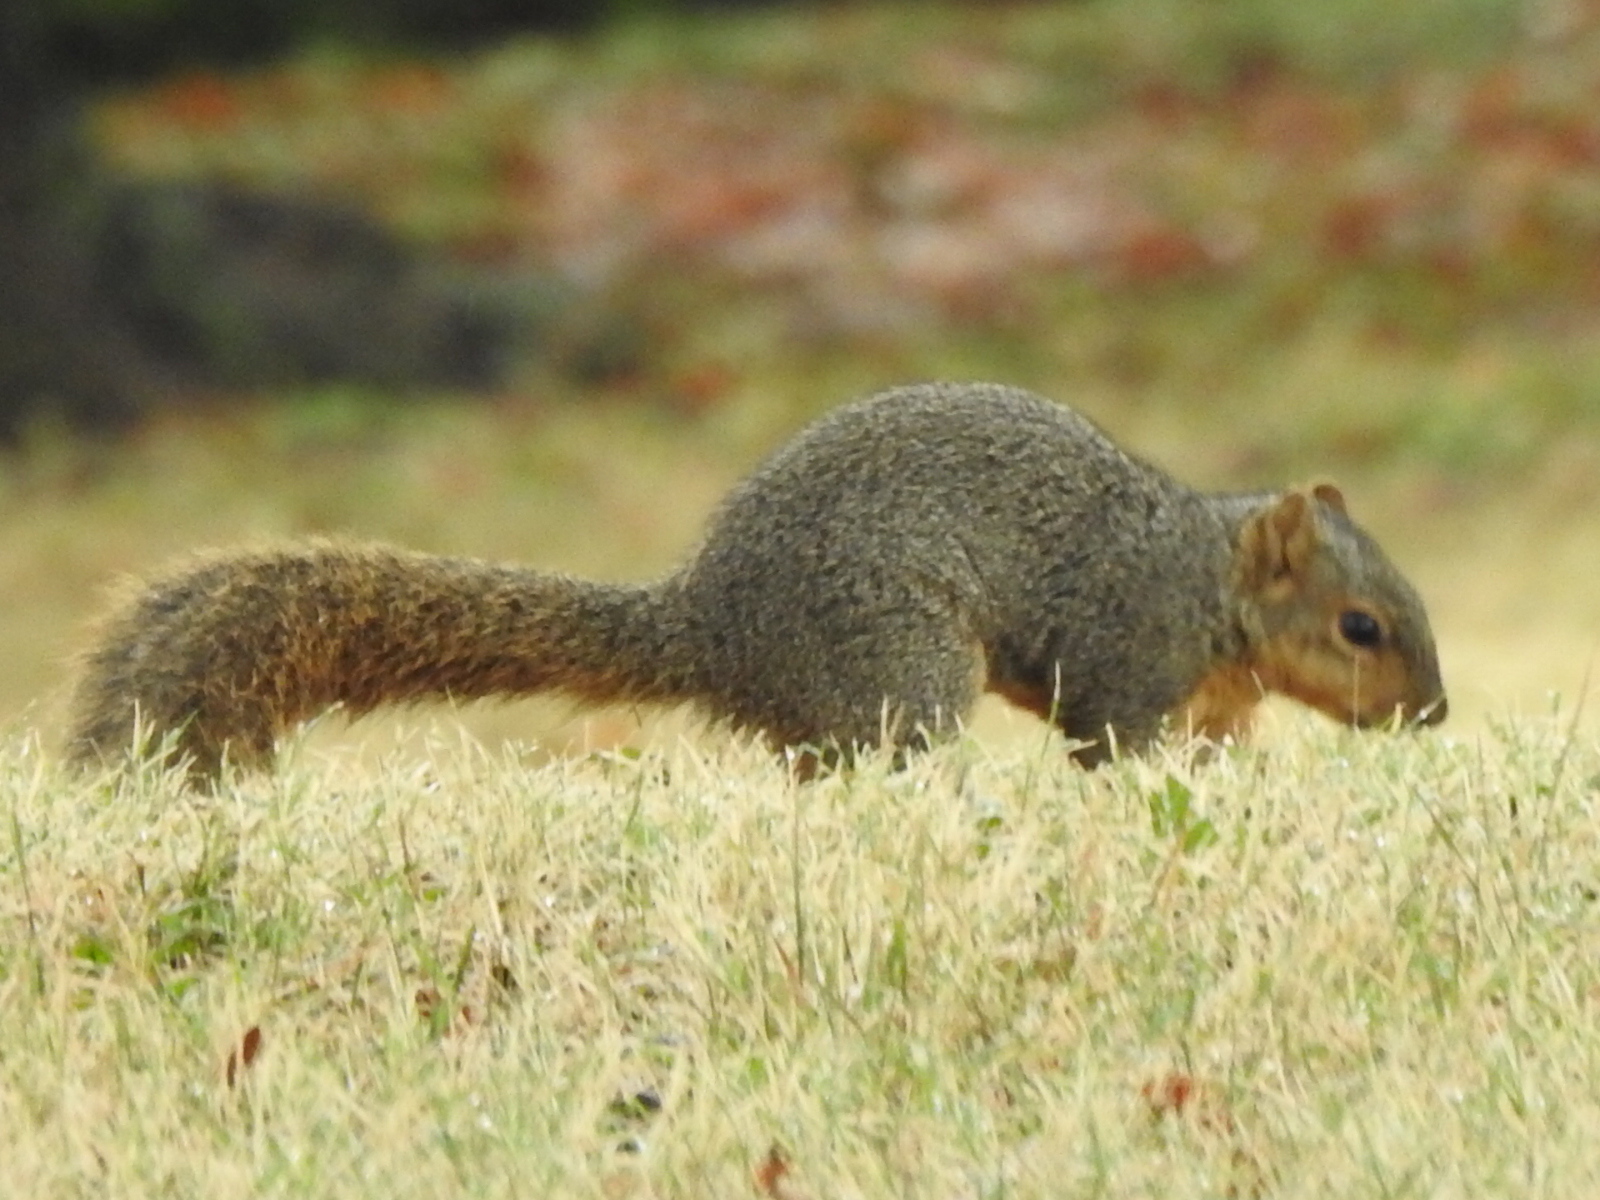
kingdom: Animalia
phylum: Chordata
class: Mammalia
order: Rodentia
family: Sciuridae
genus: Sciurus
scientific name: Sciurus niger
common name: Fox squirrel
